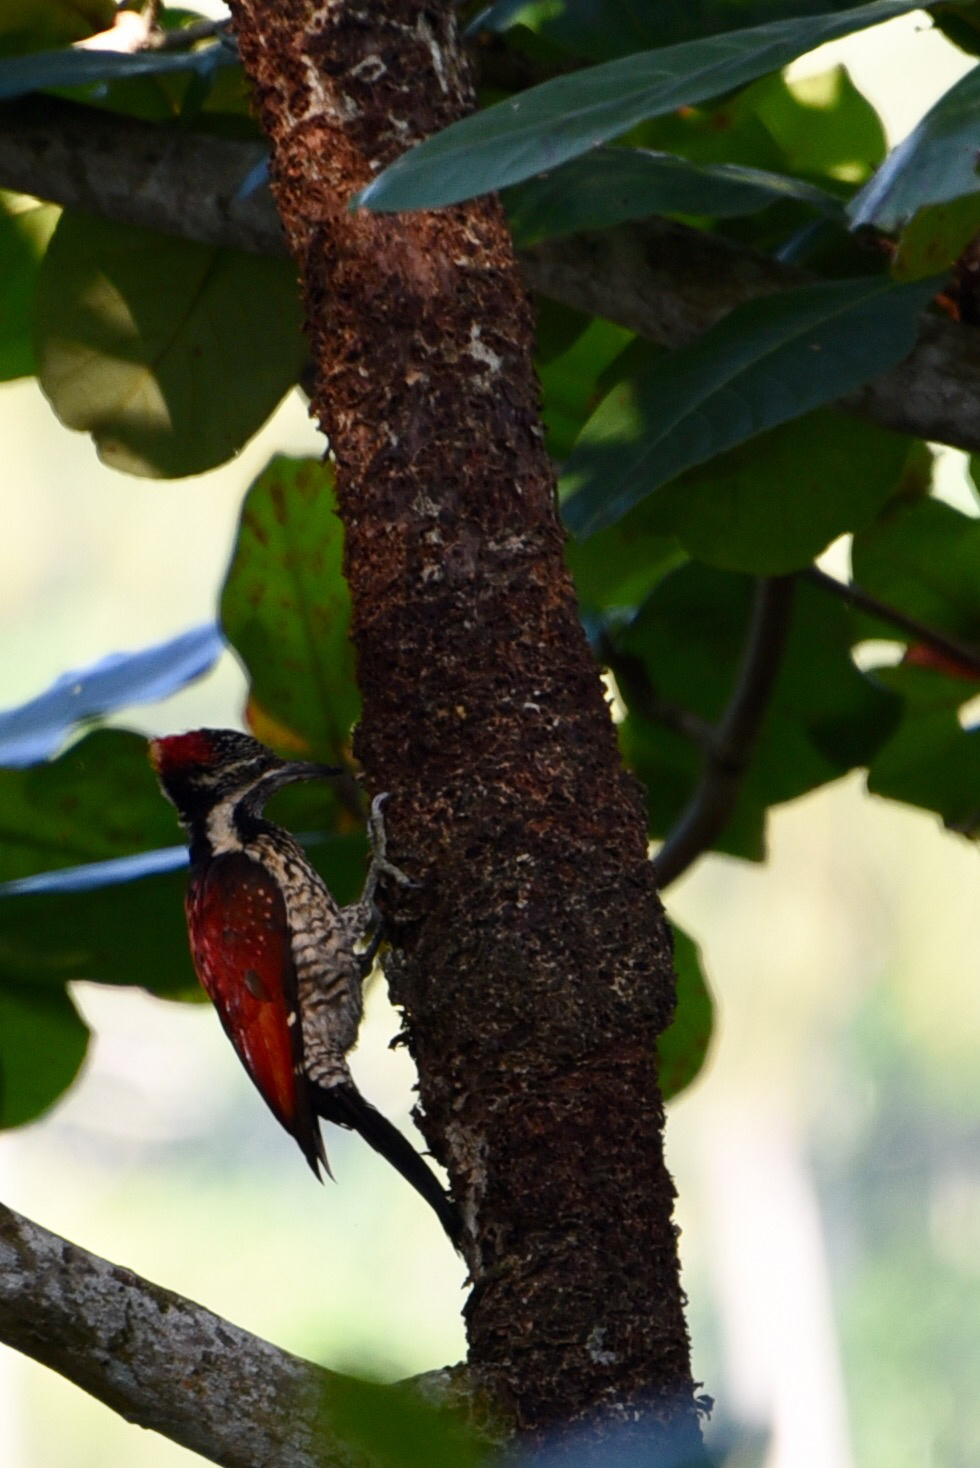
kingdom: Animalia
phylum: Chordata
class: Aves
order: Piciformes
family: Picidae
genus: Dinopium
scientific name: Dinopium psarodes
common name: Red-backed flameback
